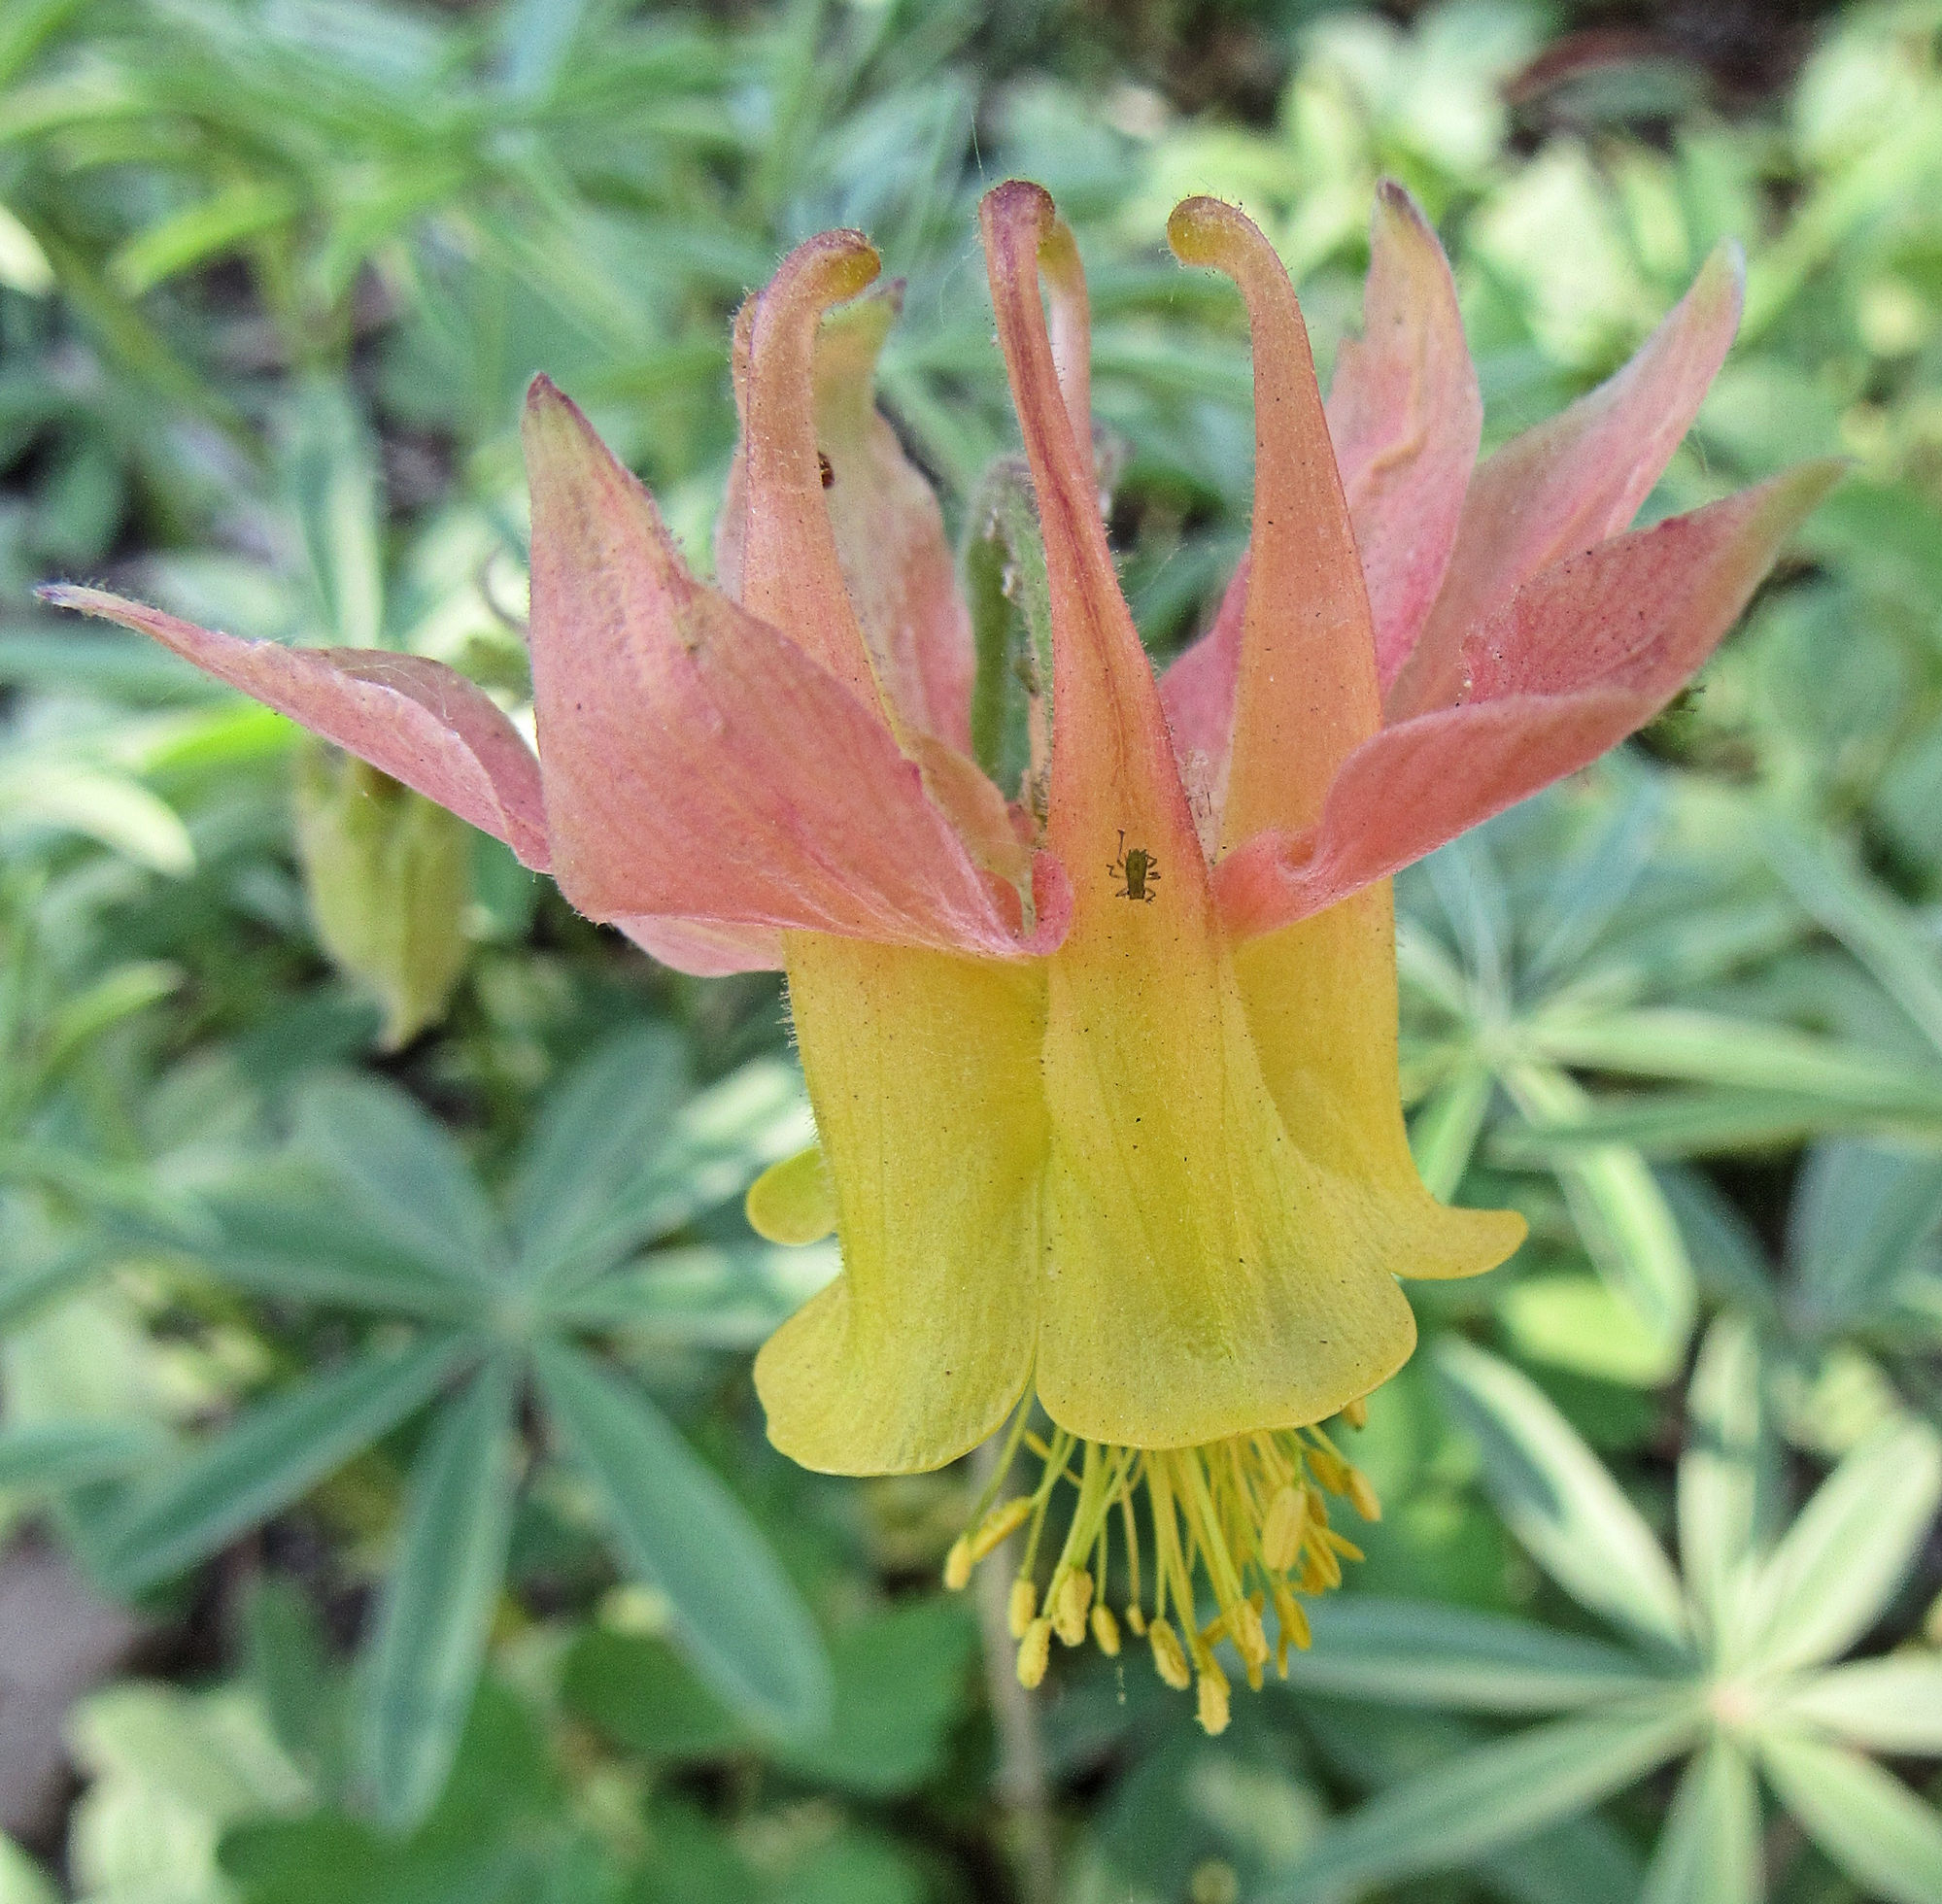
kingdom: Plantae
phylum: Tracheophyta
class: Magnoliopsida
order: Ranunculales
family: Ranunculaceae
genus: Aquilegia
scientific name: Aquilegia flavescens
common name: Yellow columbine
